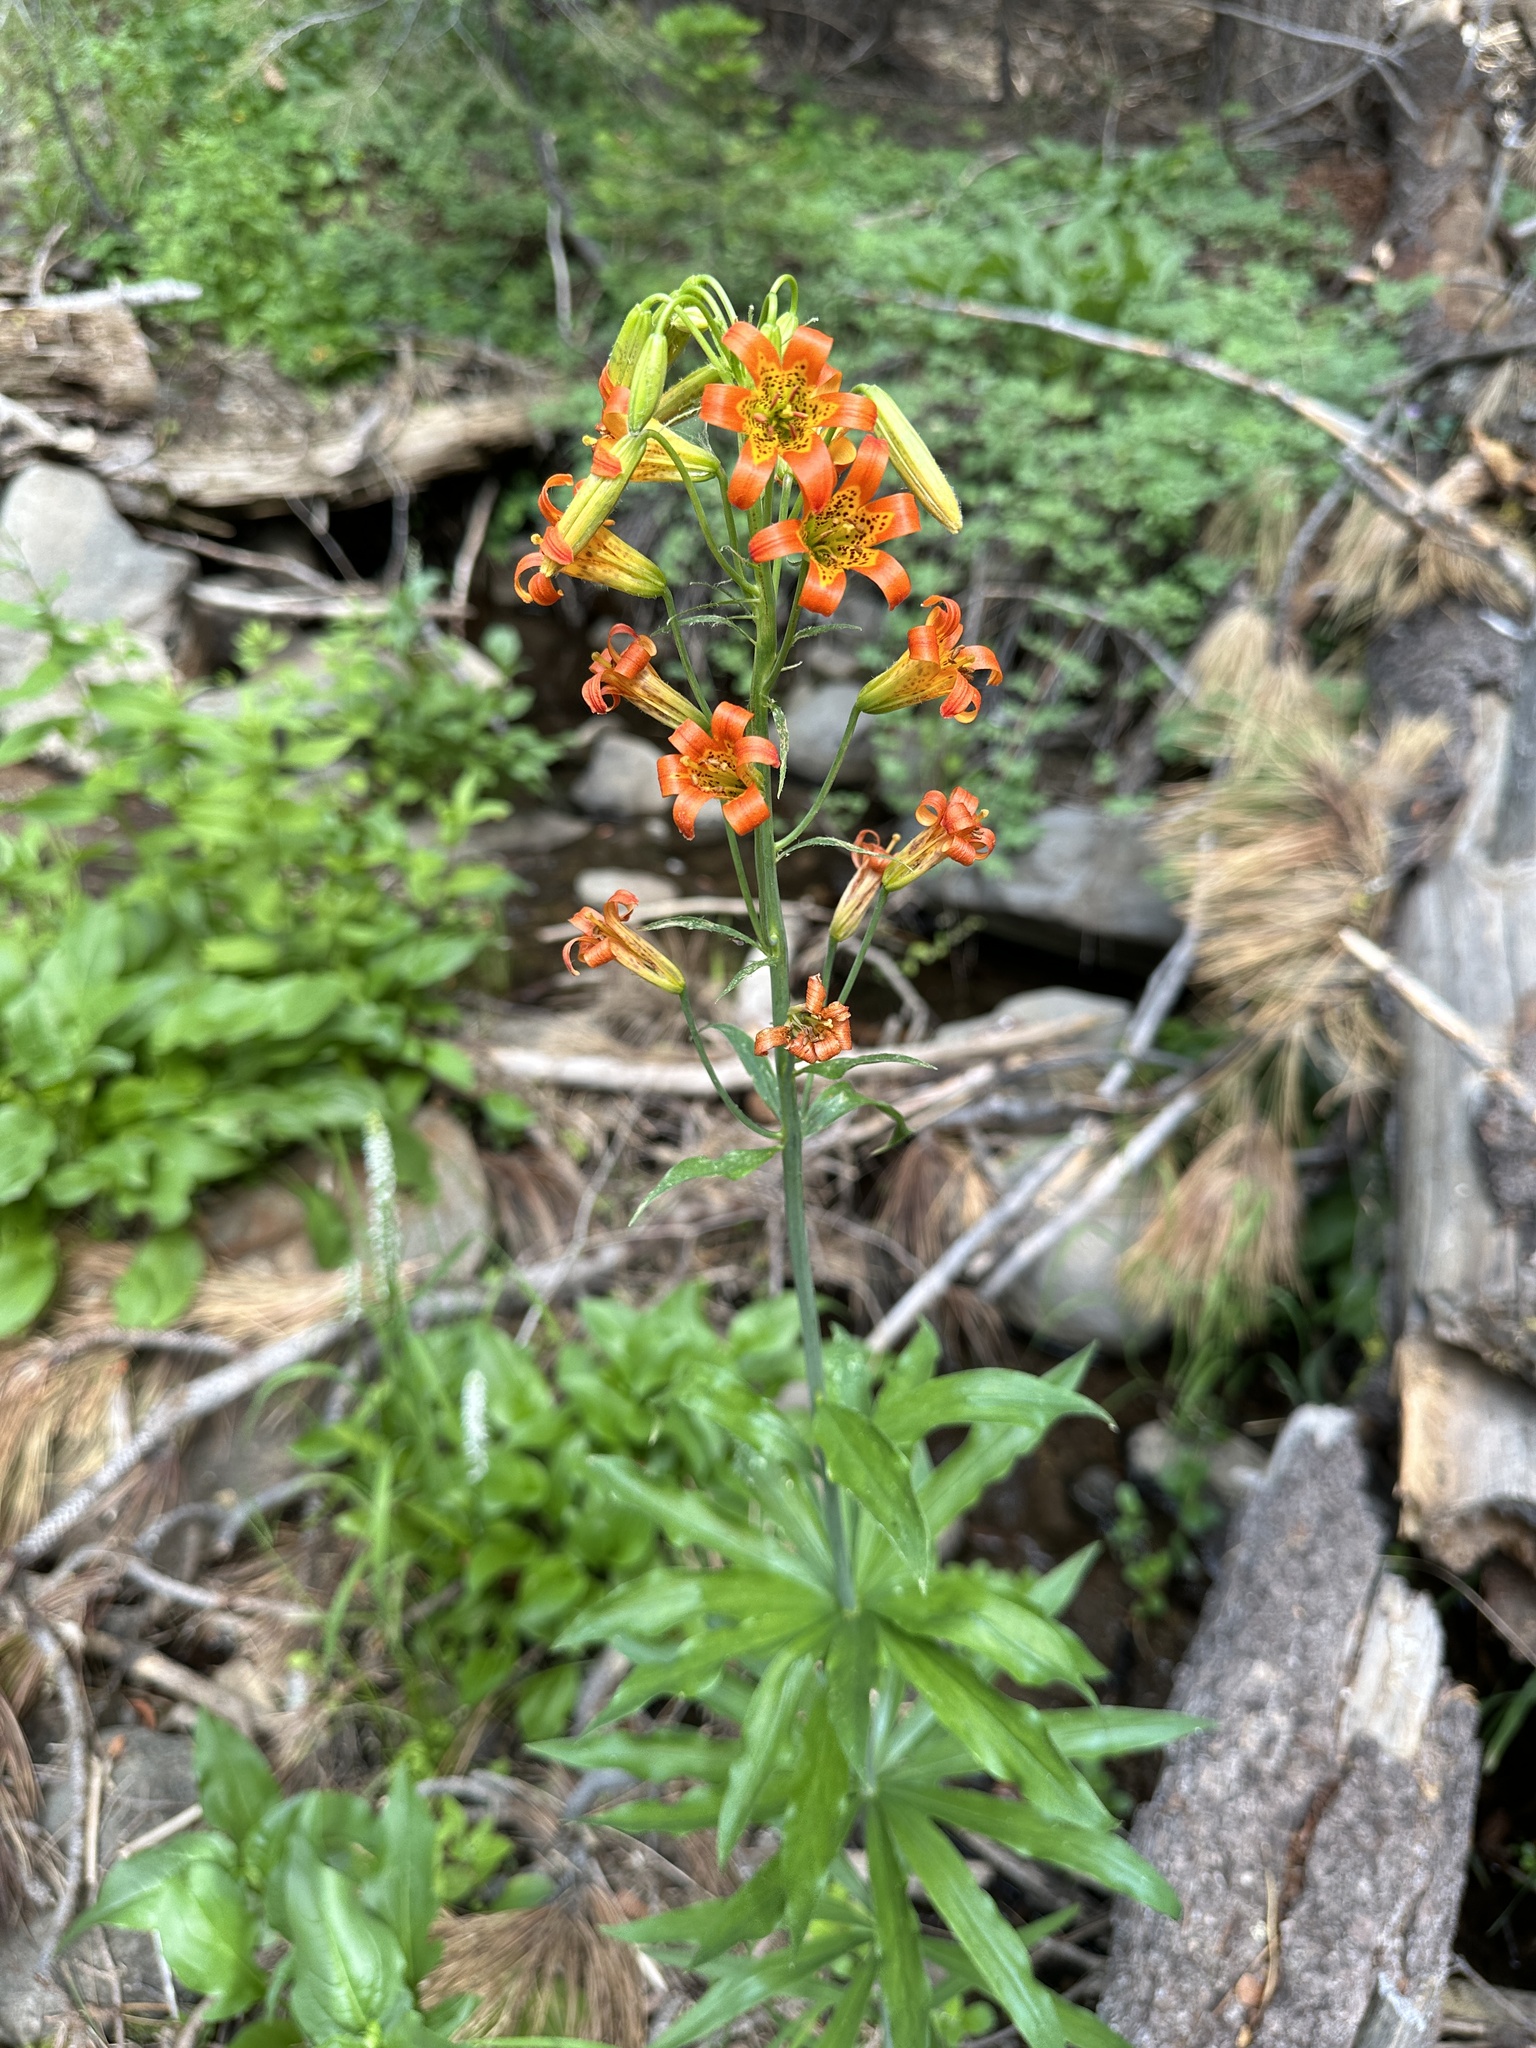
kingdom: Plantae
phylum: Tracheophyta
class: Liliopsida
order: Liliales
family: Liliaceae
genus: Lilium
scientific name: Lilium parvum
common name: Alpine lily
